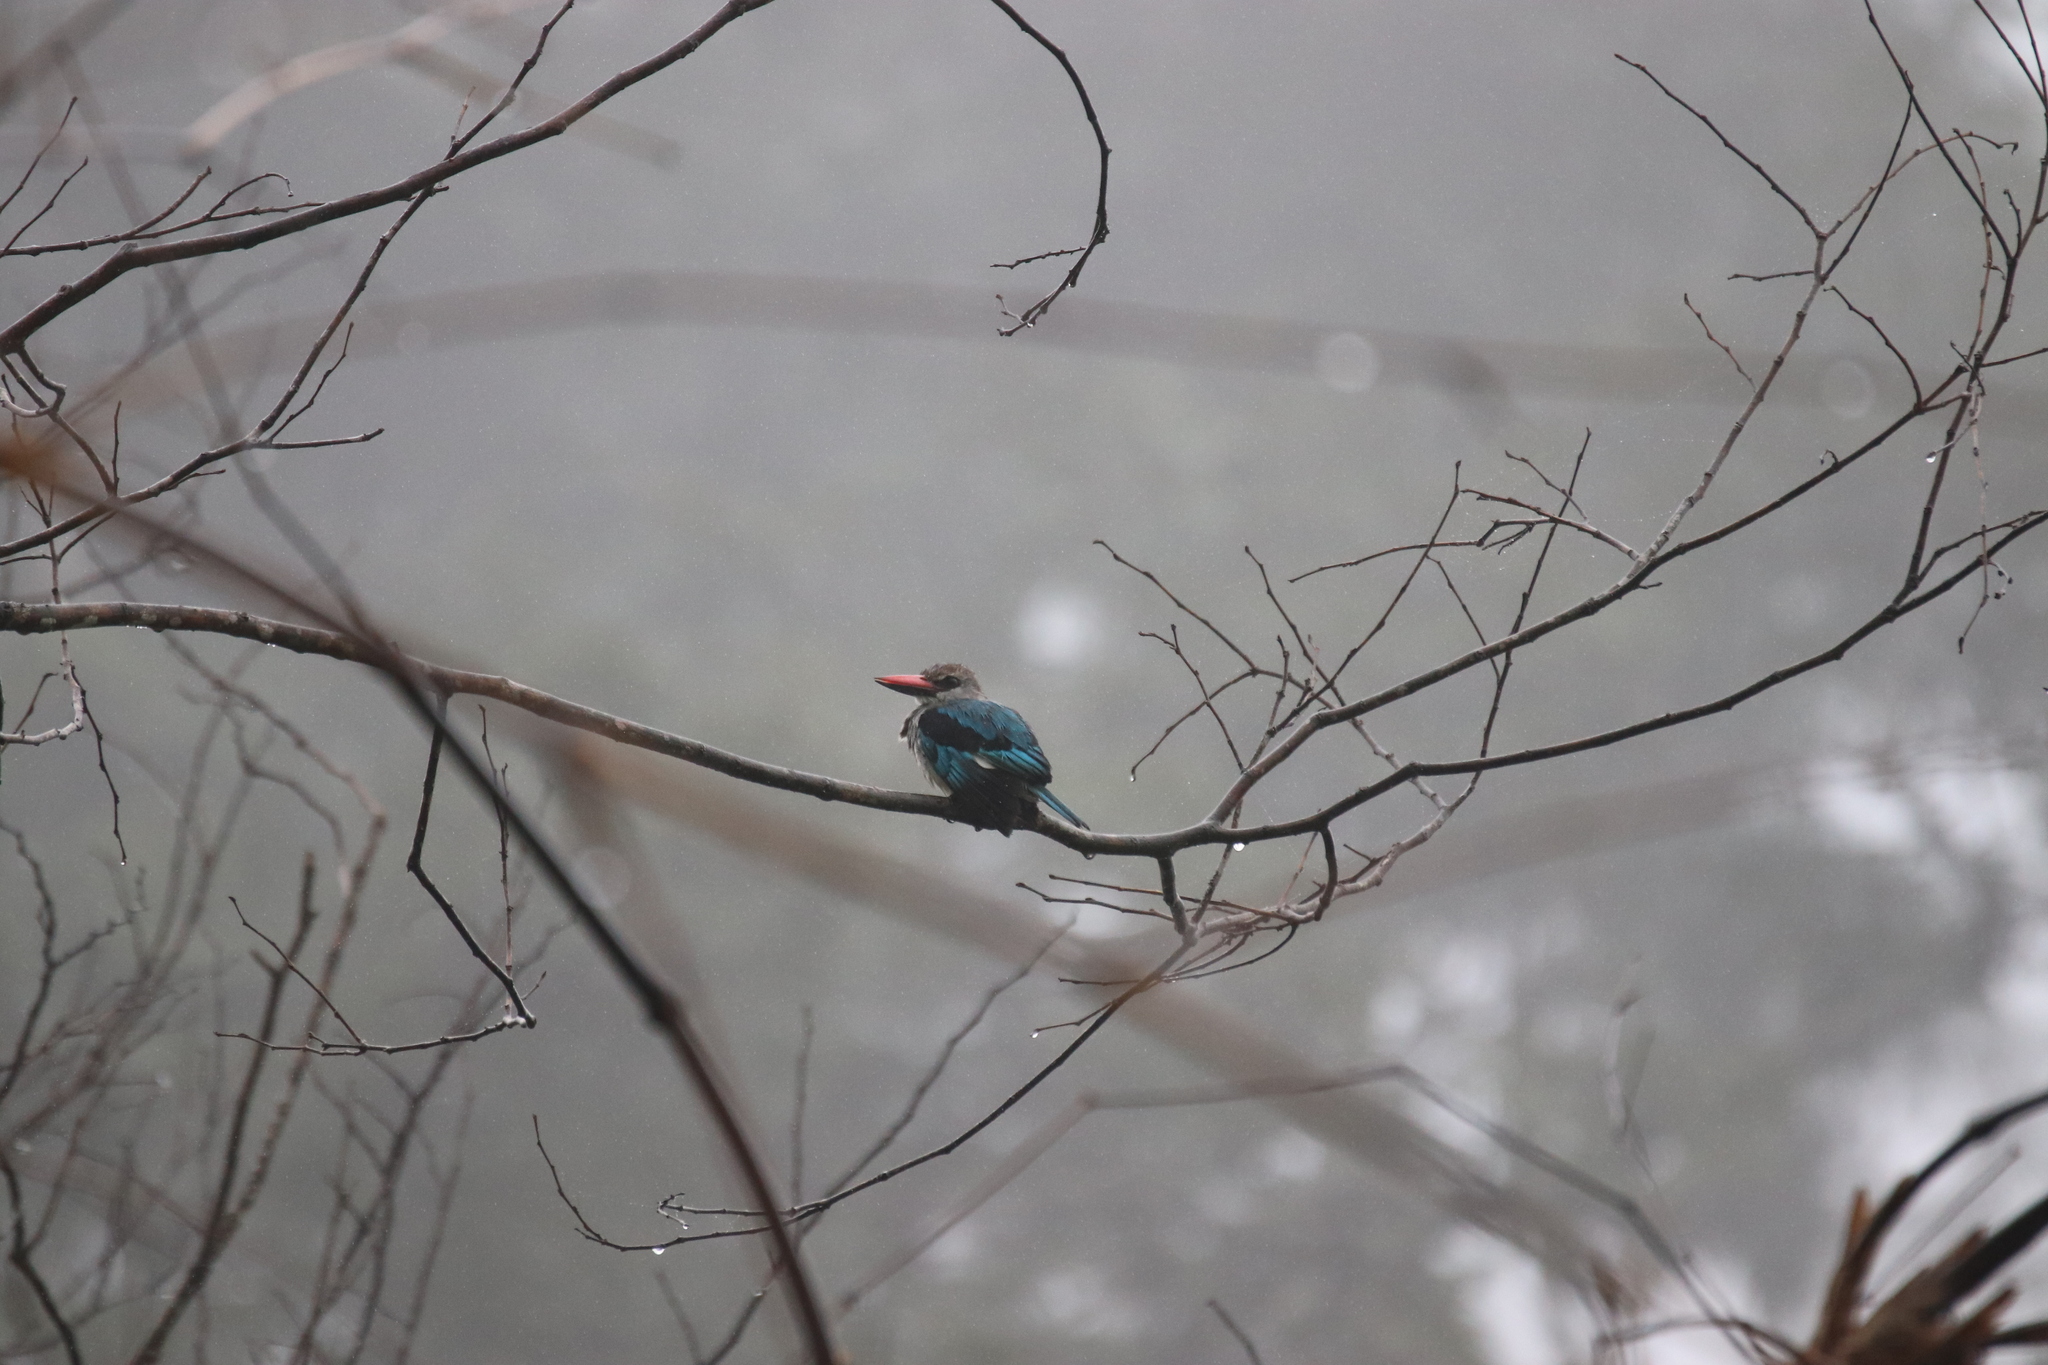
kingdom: Animalia
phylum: Chordata
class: Aves
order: Coraciiformes
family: Alcedinidae
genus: Halcyon
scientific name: Halcyon senegalensis
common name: Woodland kingfisher
